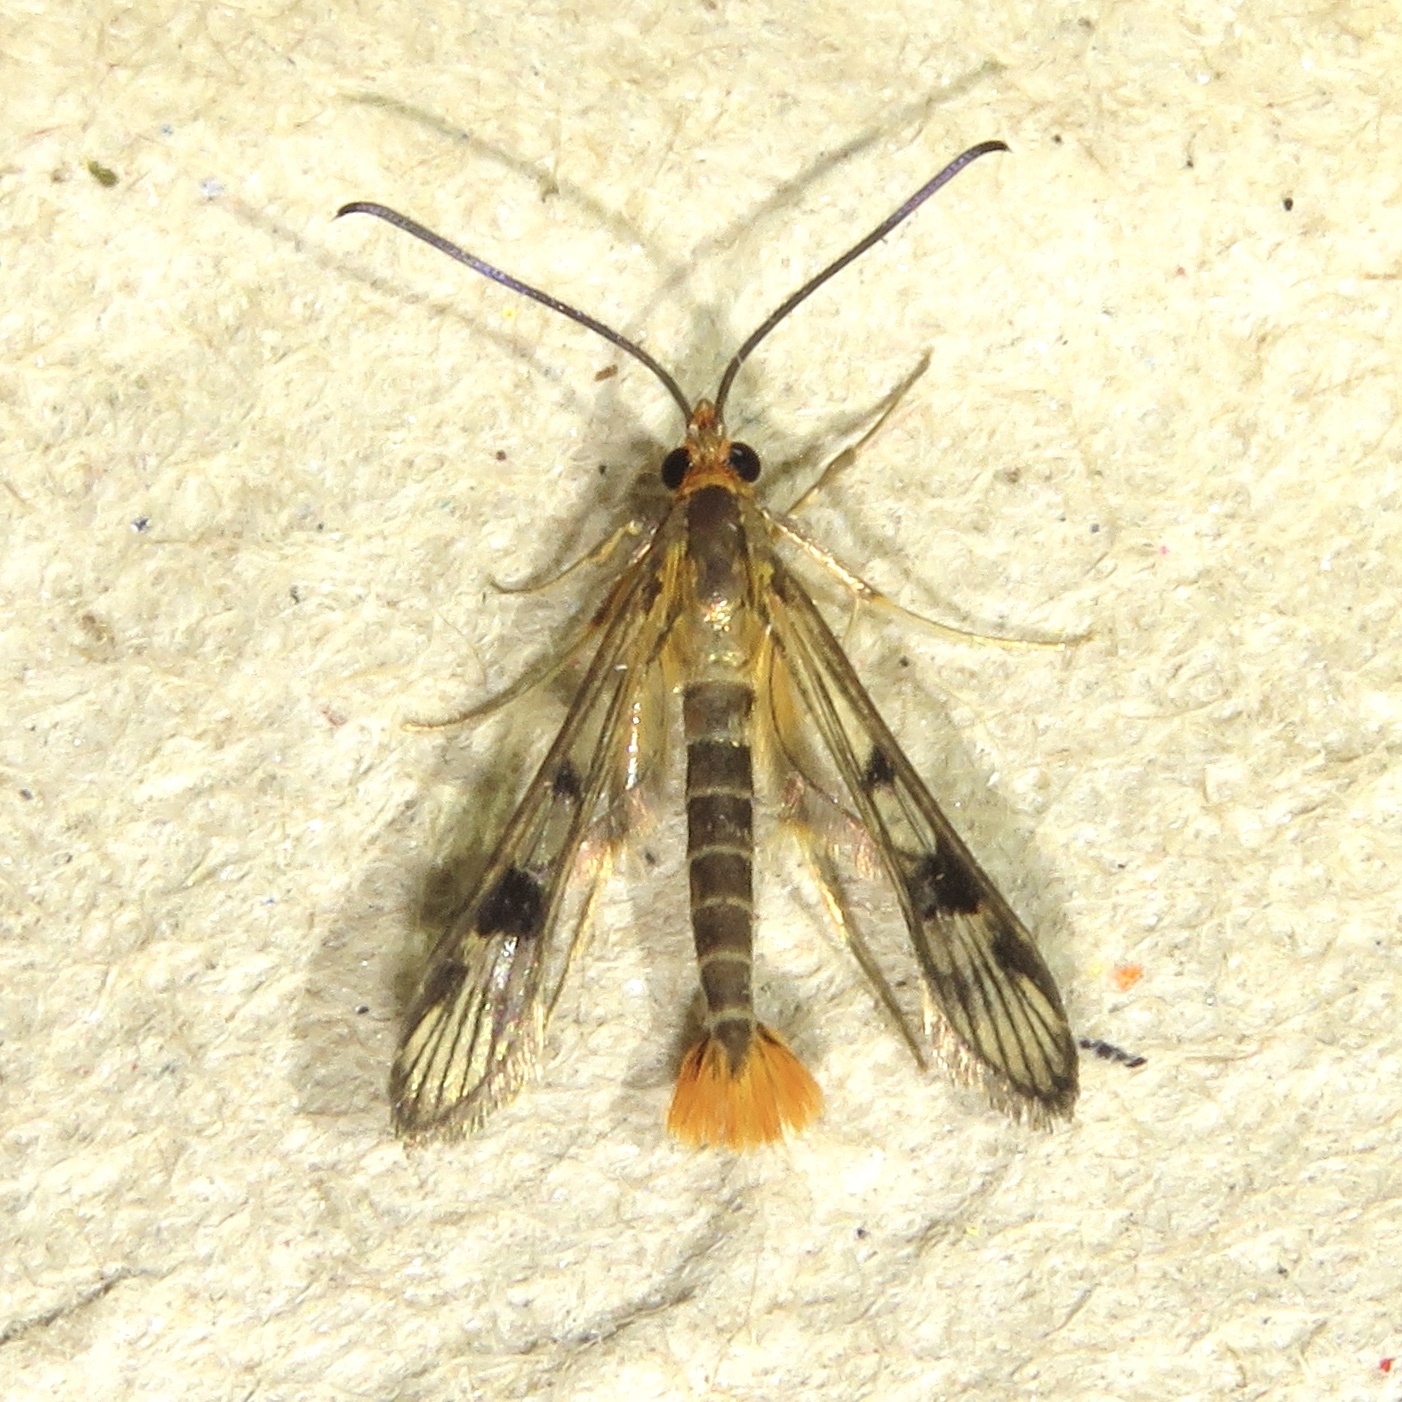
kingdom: Animalia
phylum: Arthropoda
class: Insecta
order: Lepidoptera
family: Sesiidae
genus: Synanthedon
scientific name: Synanthedon acerni
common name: Maple callus borer moth
